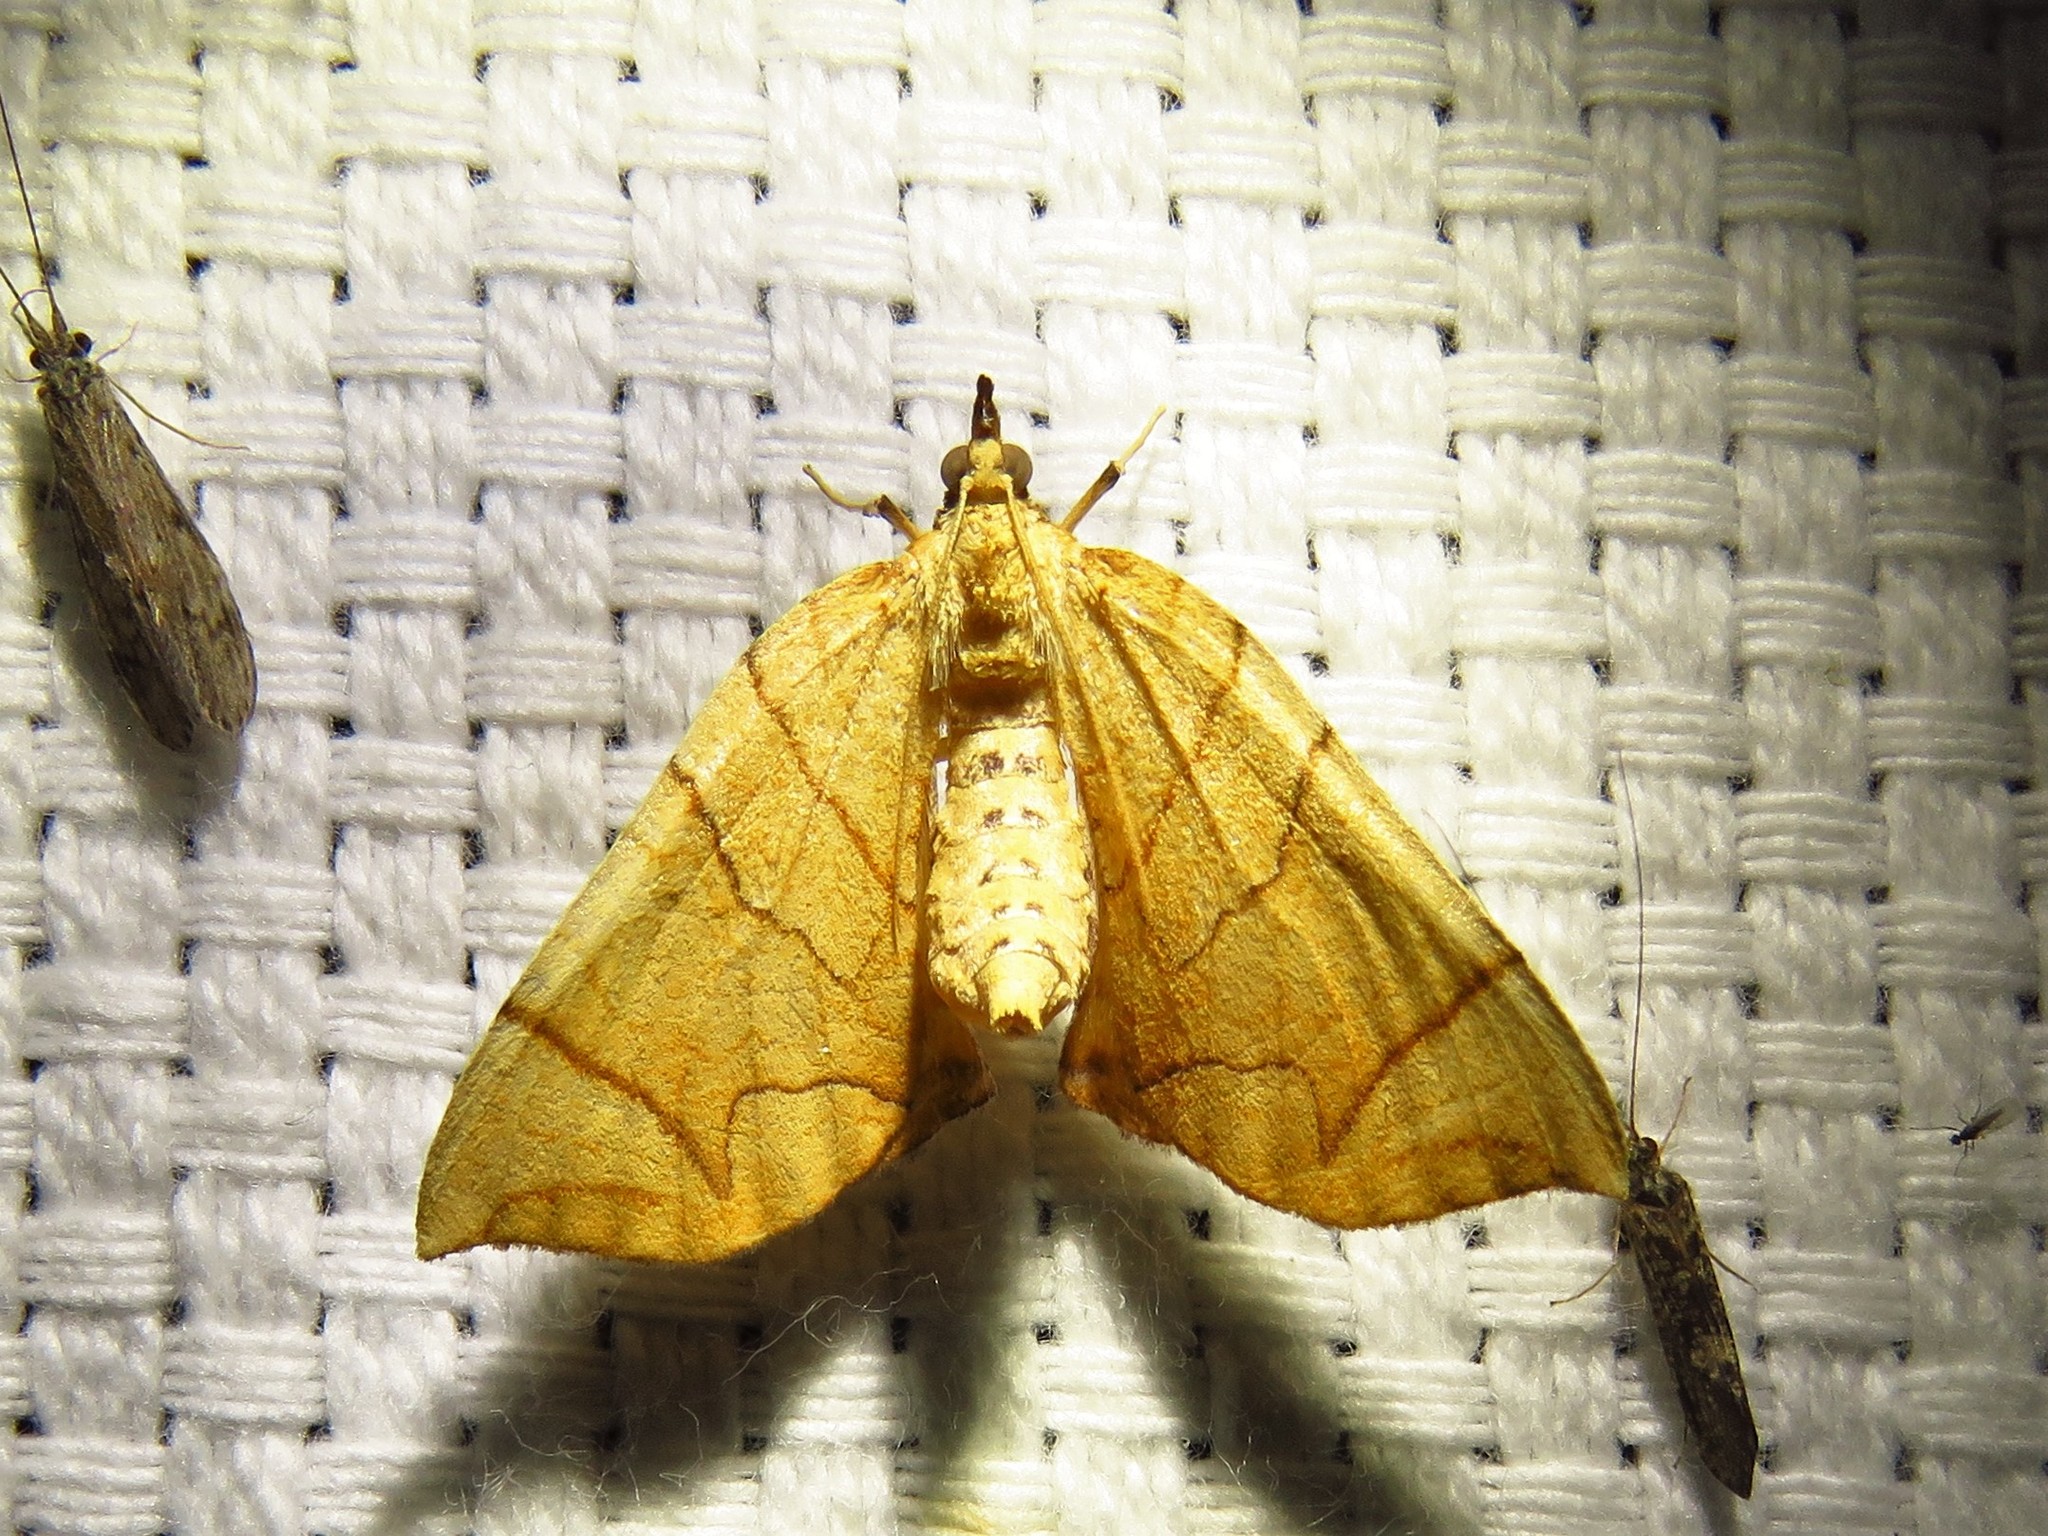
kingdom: Animalia
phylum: Arthropoda
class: Insecta
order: Lepidoptera
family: Geometridae
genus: Eulithis
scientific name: Eulithis gracilineata
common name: Greater grapevine looper moth
